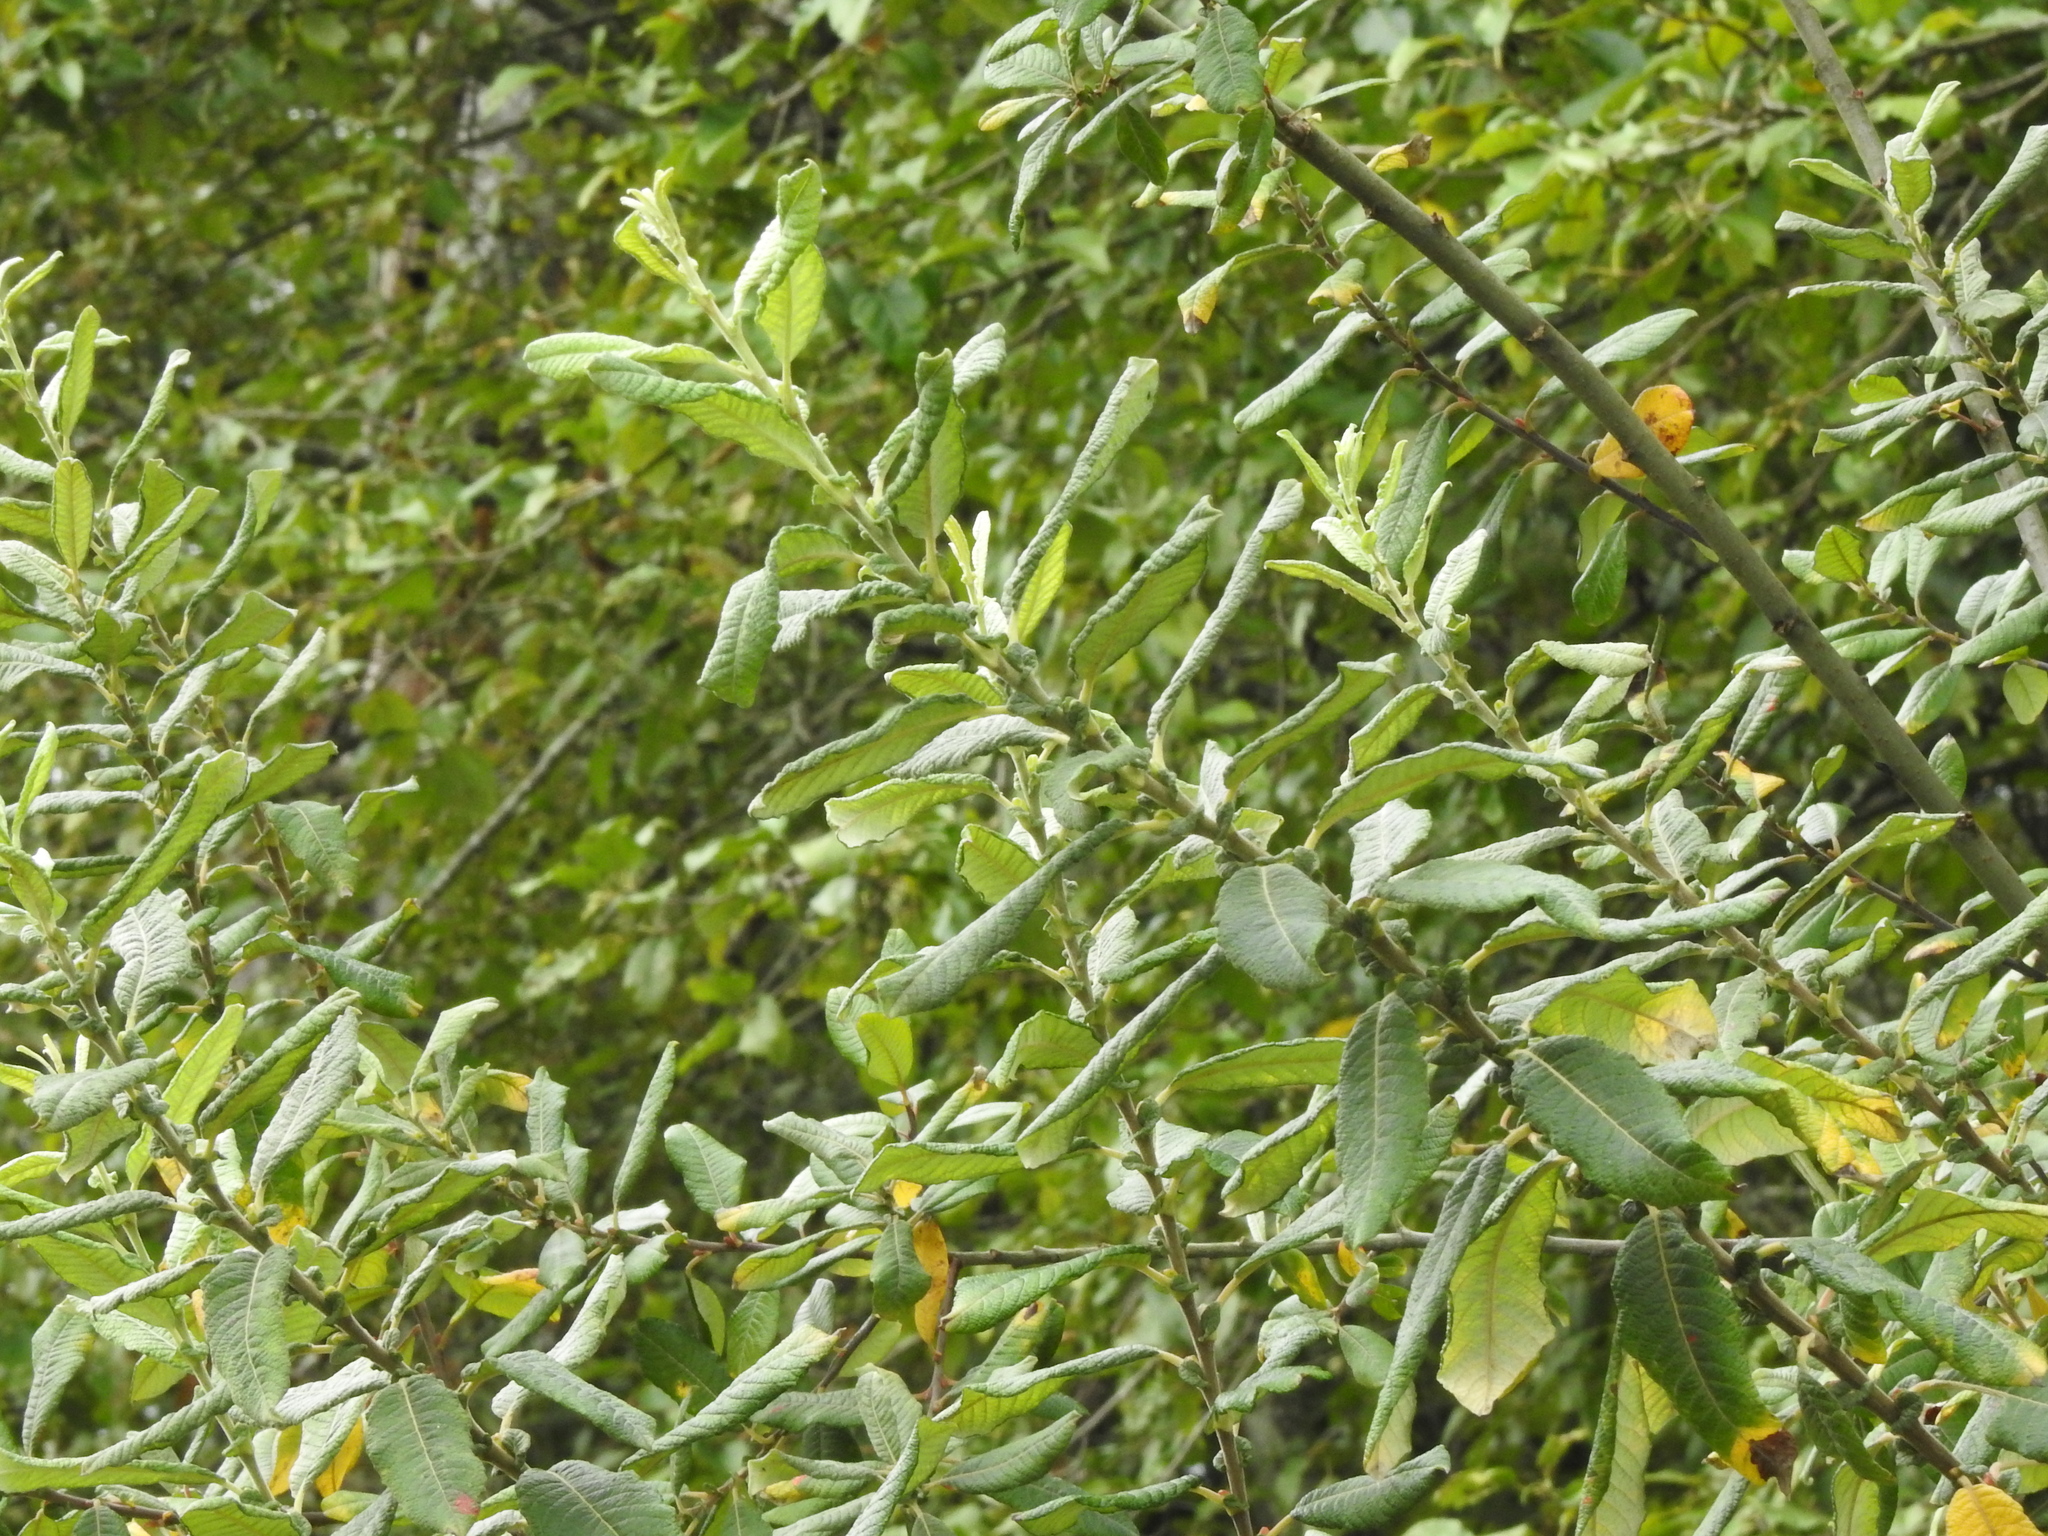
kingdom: Plantae
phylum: Tracheophyta
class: Magnoliopsida
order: Malpighiales
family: Salicaceae
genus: Salix
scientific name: Salix sitchensis
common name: Sitka willow
